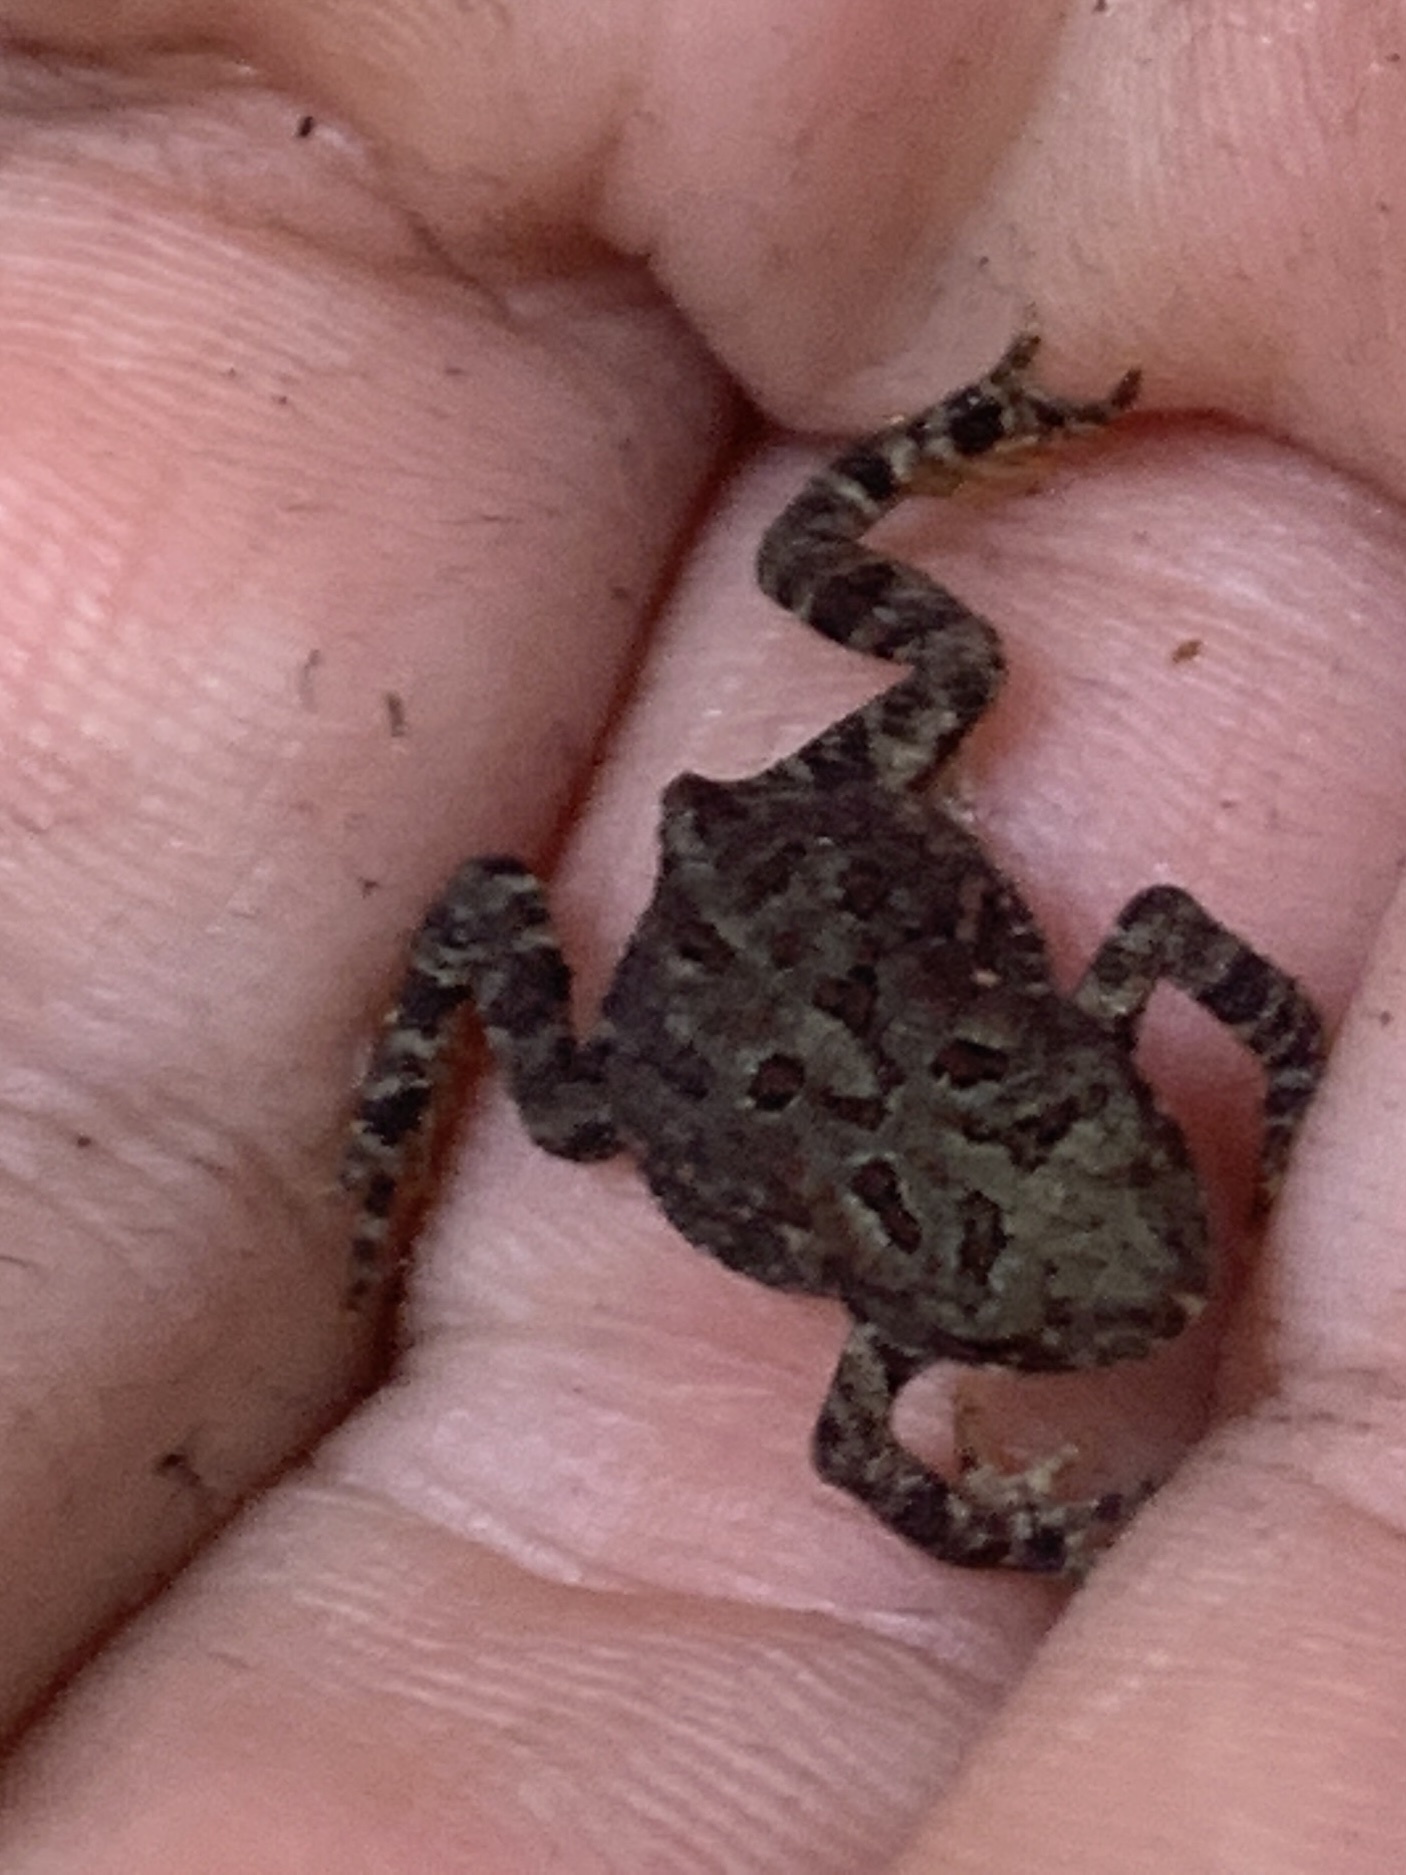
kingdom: Animalia
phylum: Chordata
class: Amphibia
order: Anura
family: Bufonidae
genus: Anaxyrus
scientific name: Anaxyrus americanus
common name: American toad
